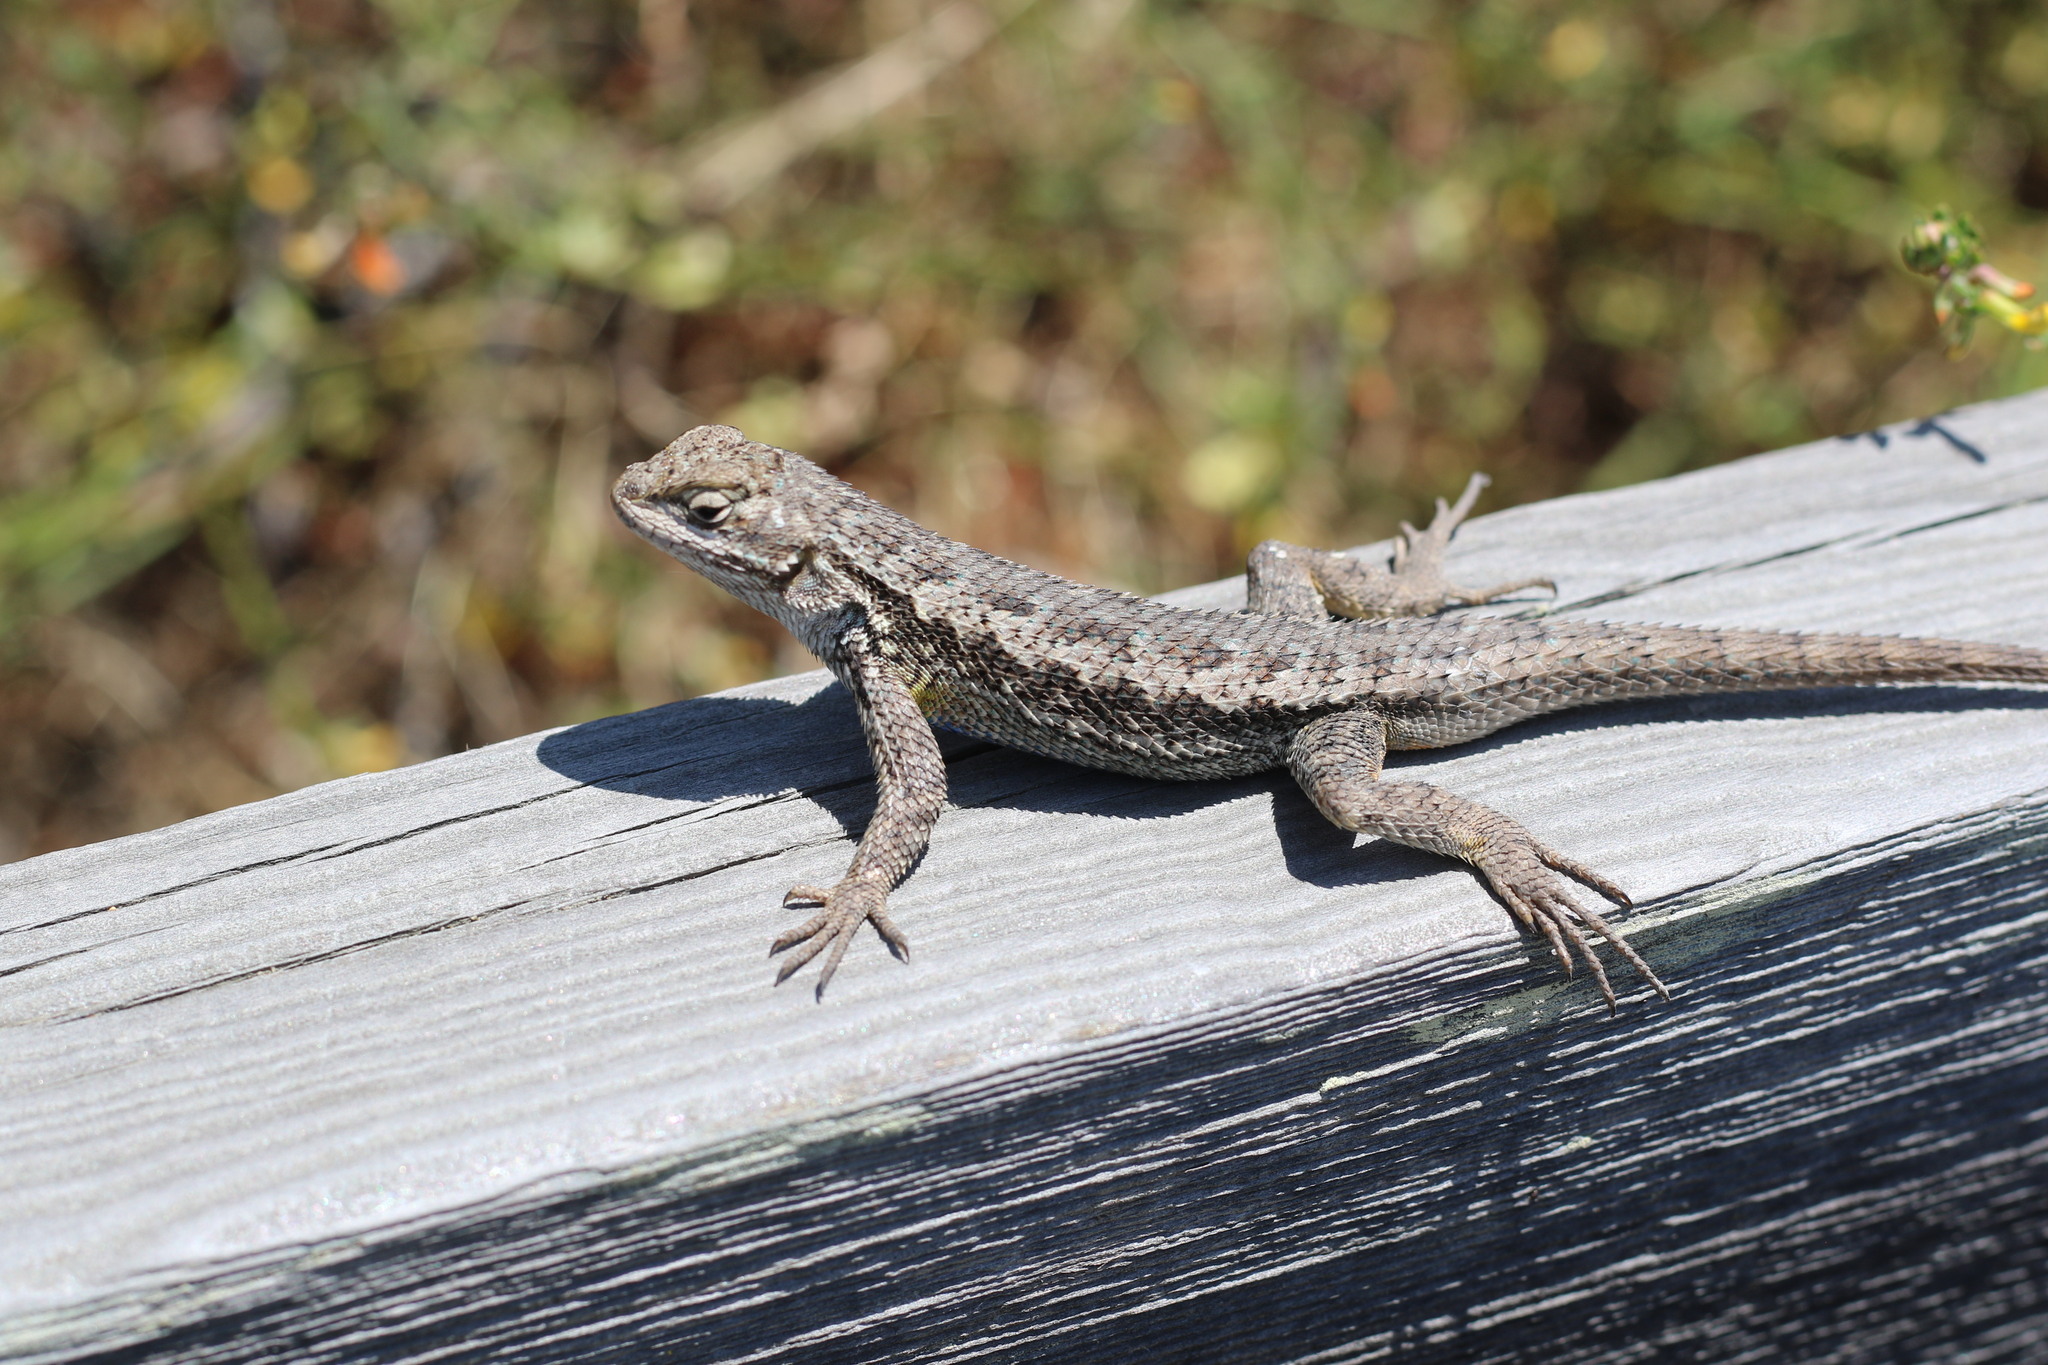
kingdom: Animalia
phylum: Chordata
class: Squamata
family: Phrynosomatidae
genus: Sceloporus
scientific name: Sceloporus occidentalis
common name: Western fence lizard
